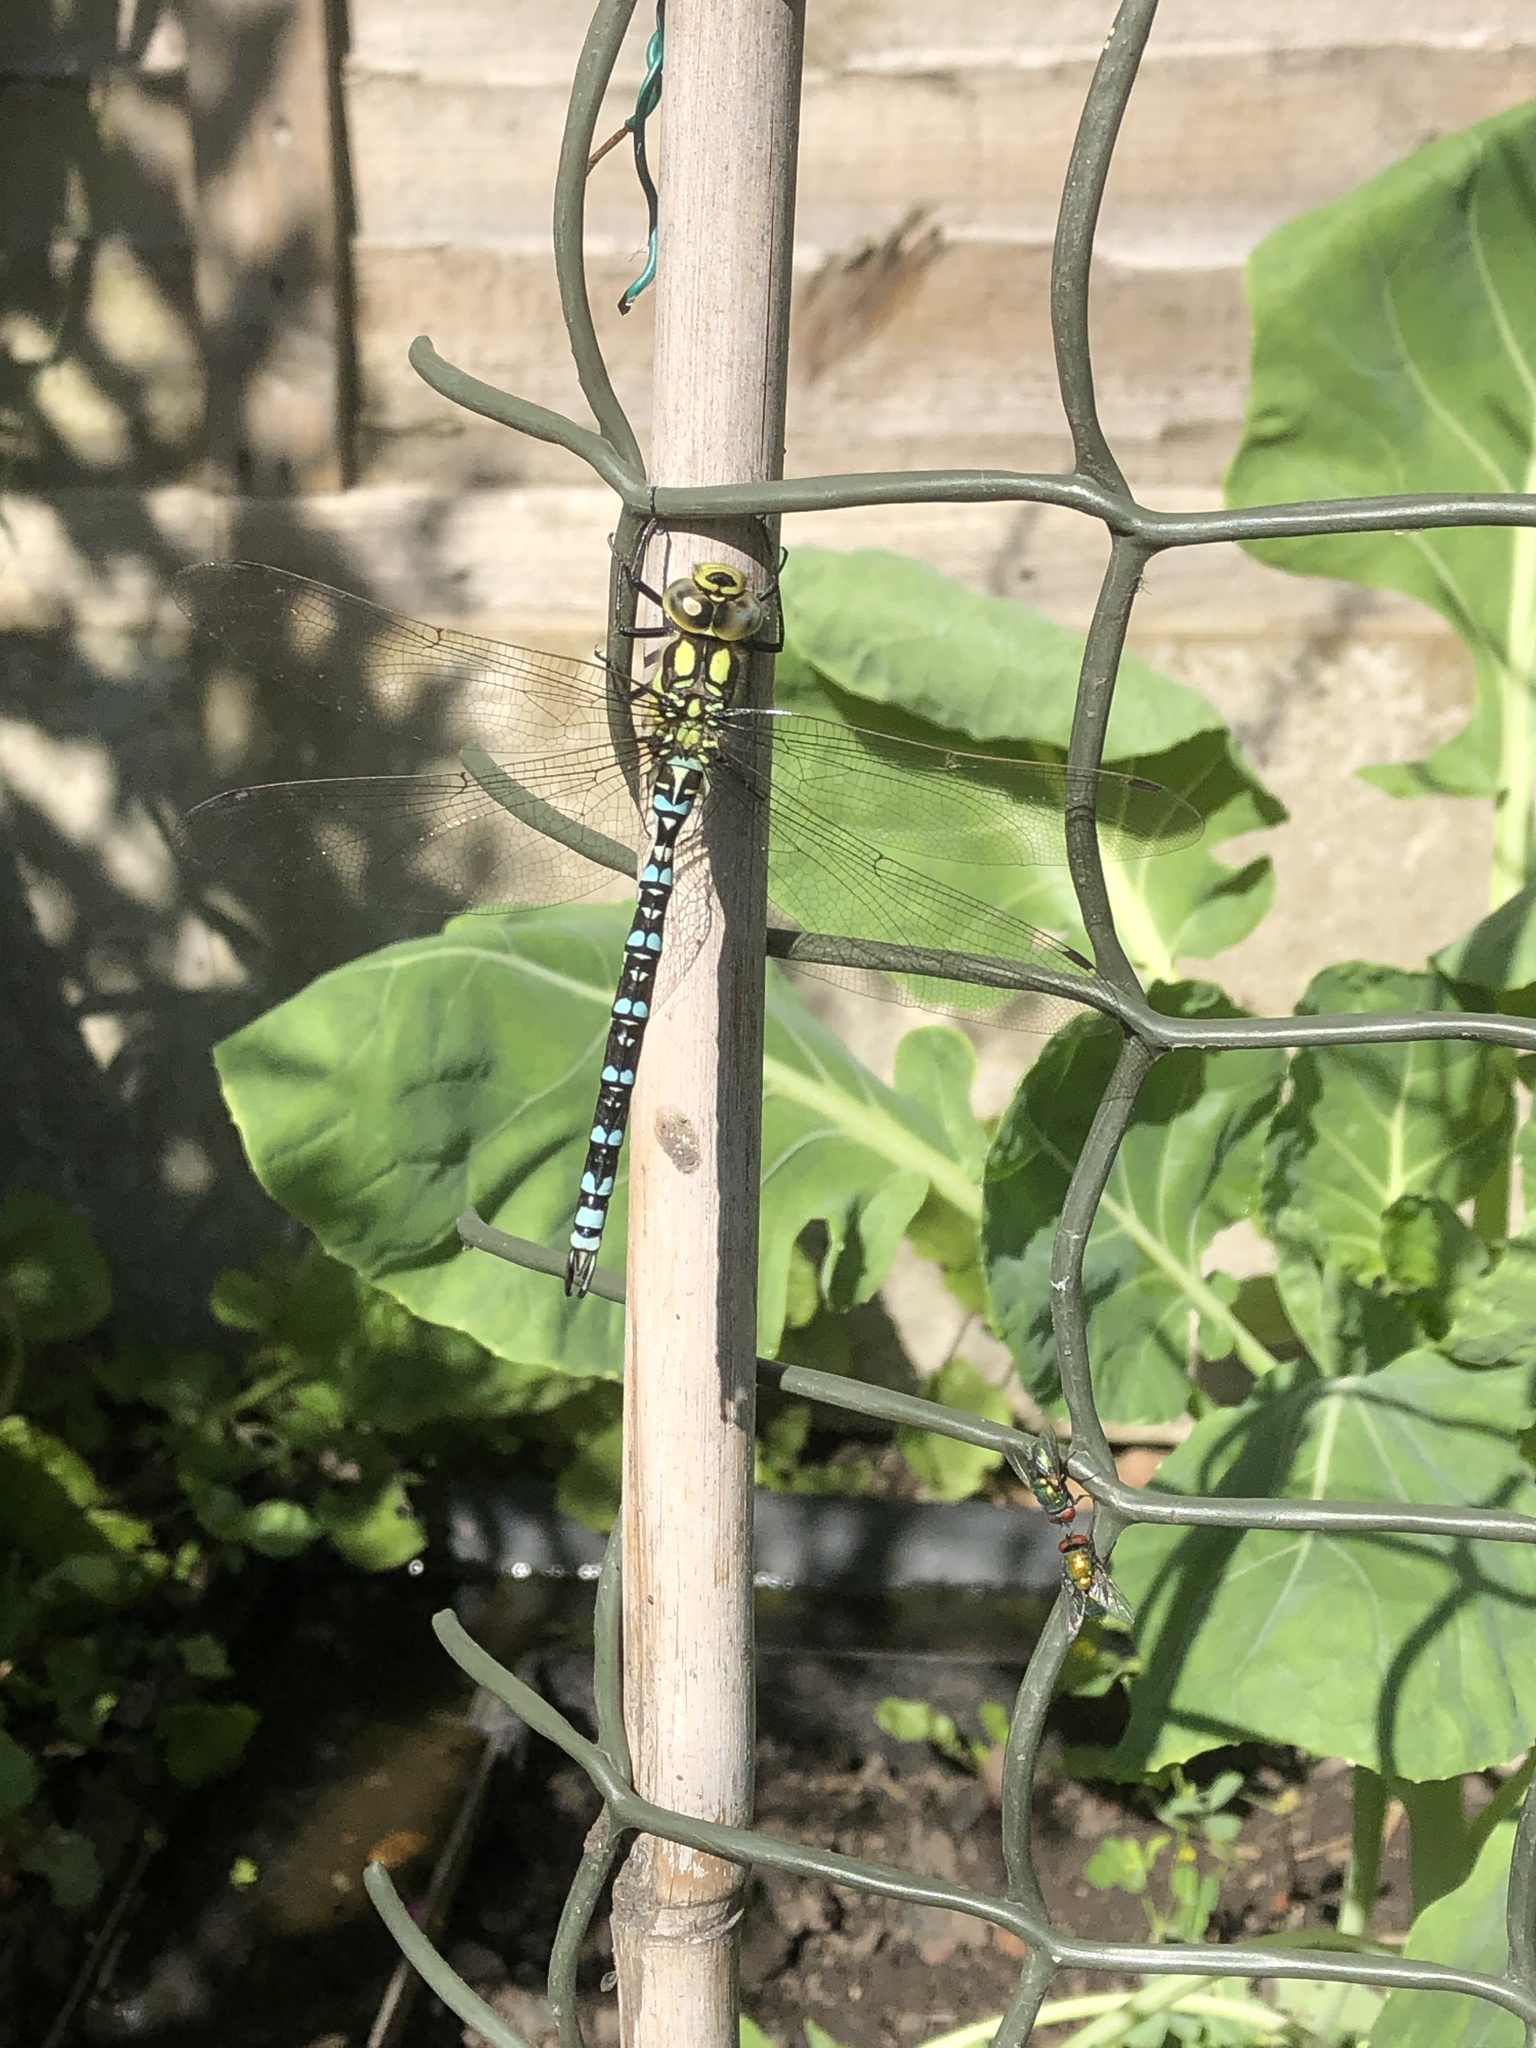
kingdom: Animalia
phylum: Arthropoda
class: Insecta
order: Odonata
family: Aeshnidae
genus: Aeshna
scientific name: Aeshna cyanea
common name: Southern hawker
